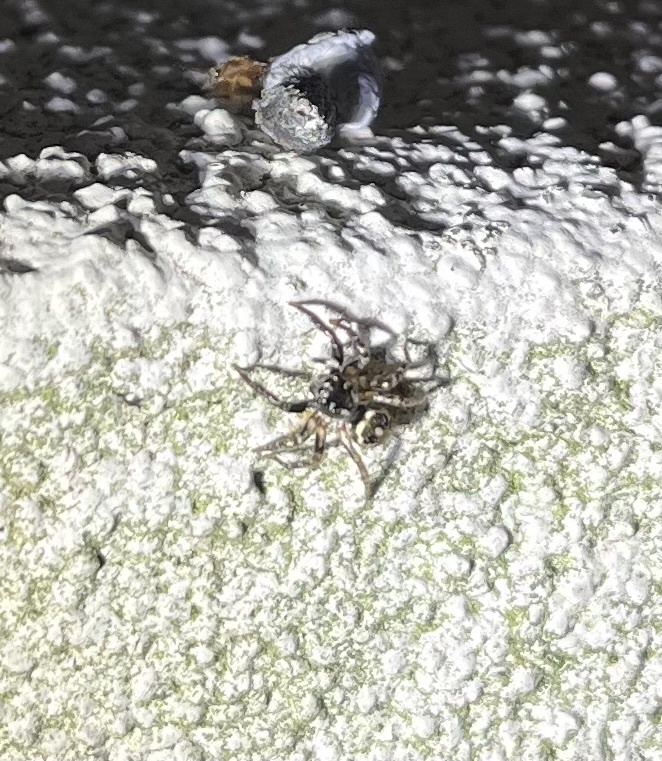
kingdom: Animalia
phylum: Arthropoda
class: Arachnida
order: Araneae
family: Salticidae
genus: Anasaitis
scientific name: Anasaitis canosa
